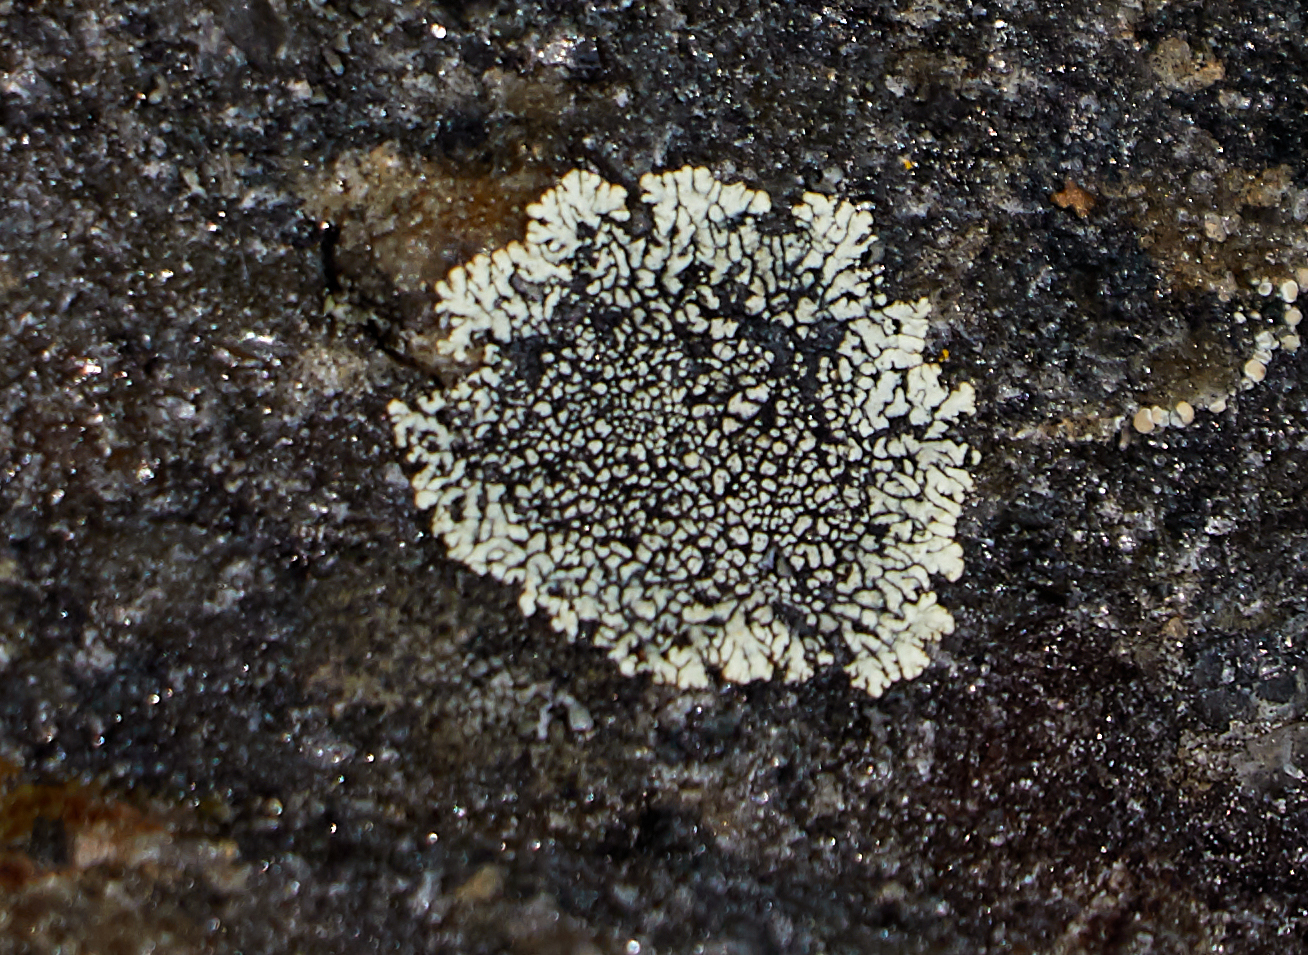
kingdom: Fungi
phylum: Ascomycota
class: Lecanoromycetes
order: Caliciales
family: Caliciaceae
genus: Dimelaena
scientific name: Dimelaena oreina
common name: Golden moonglow lichen
